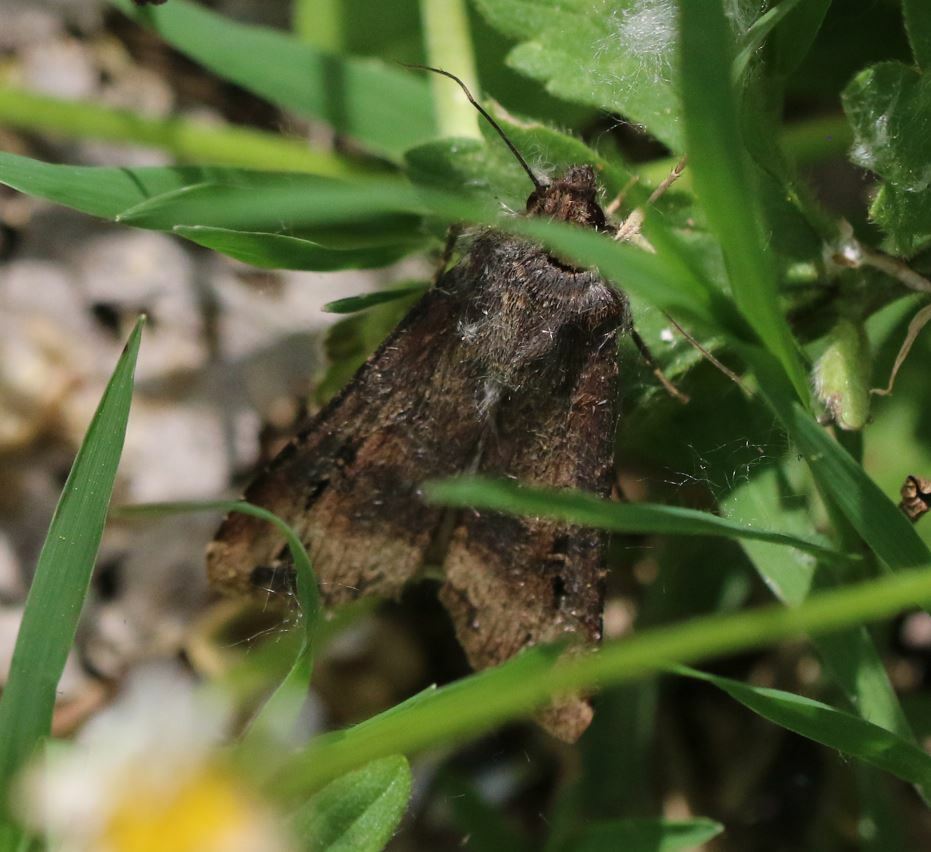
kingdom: Animalia
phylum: Arthropoda
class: Insecta
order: Lepidoptera
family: Noctuidae
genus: Agrotis
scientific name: Agrotis ipsilon
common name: Dark sword-grass
